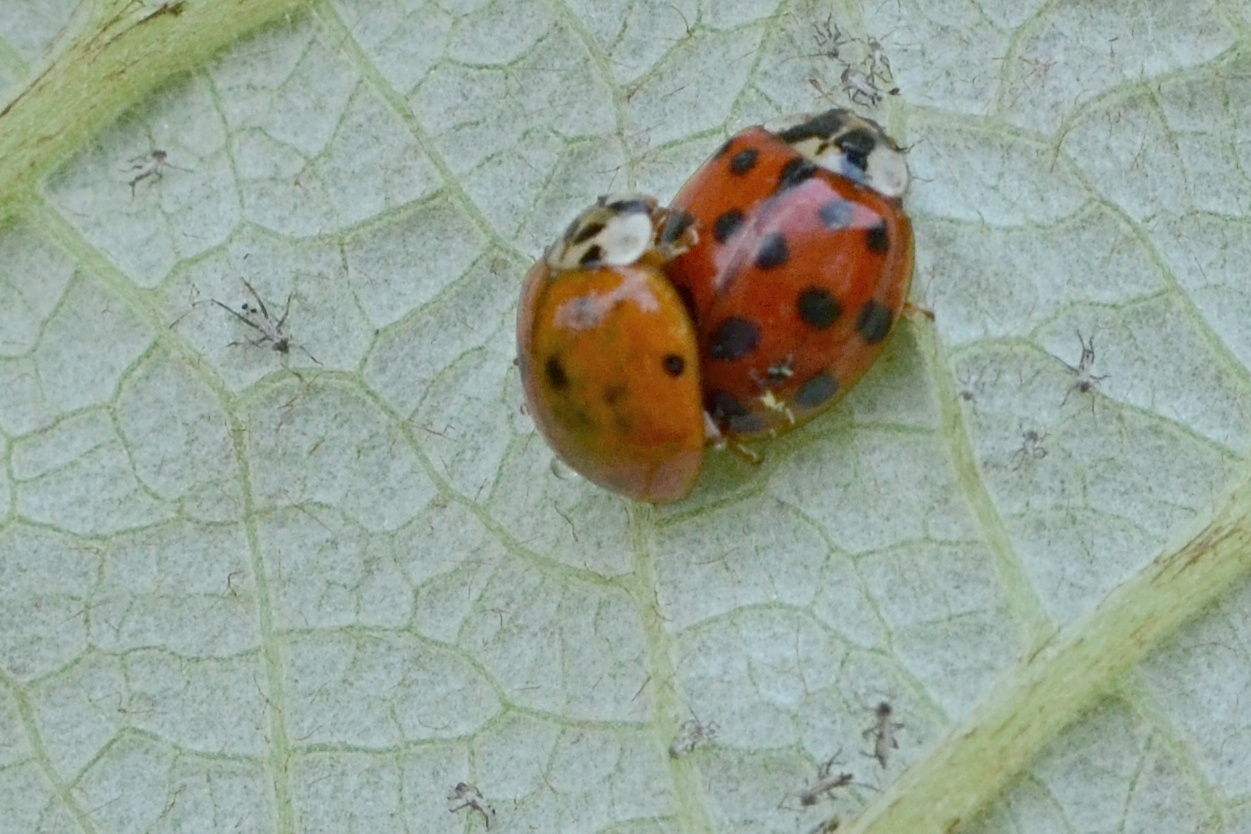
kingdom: Animalia
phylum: Arthropoda
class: Insecta
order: Coleoptera
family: Coccinellidae
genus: Harmonia
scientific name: Harmonia axyridis
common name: Harlequin ladybird
